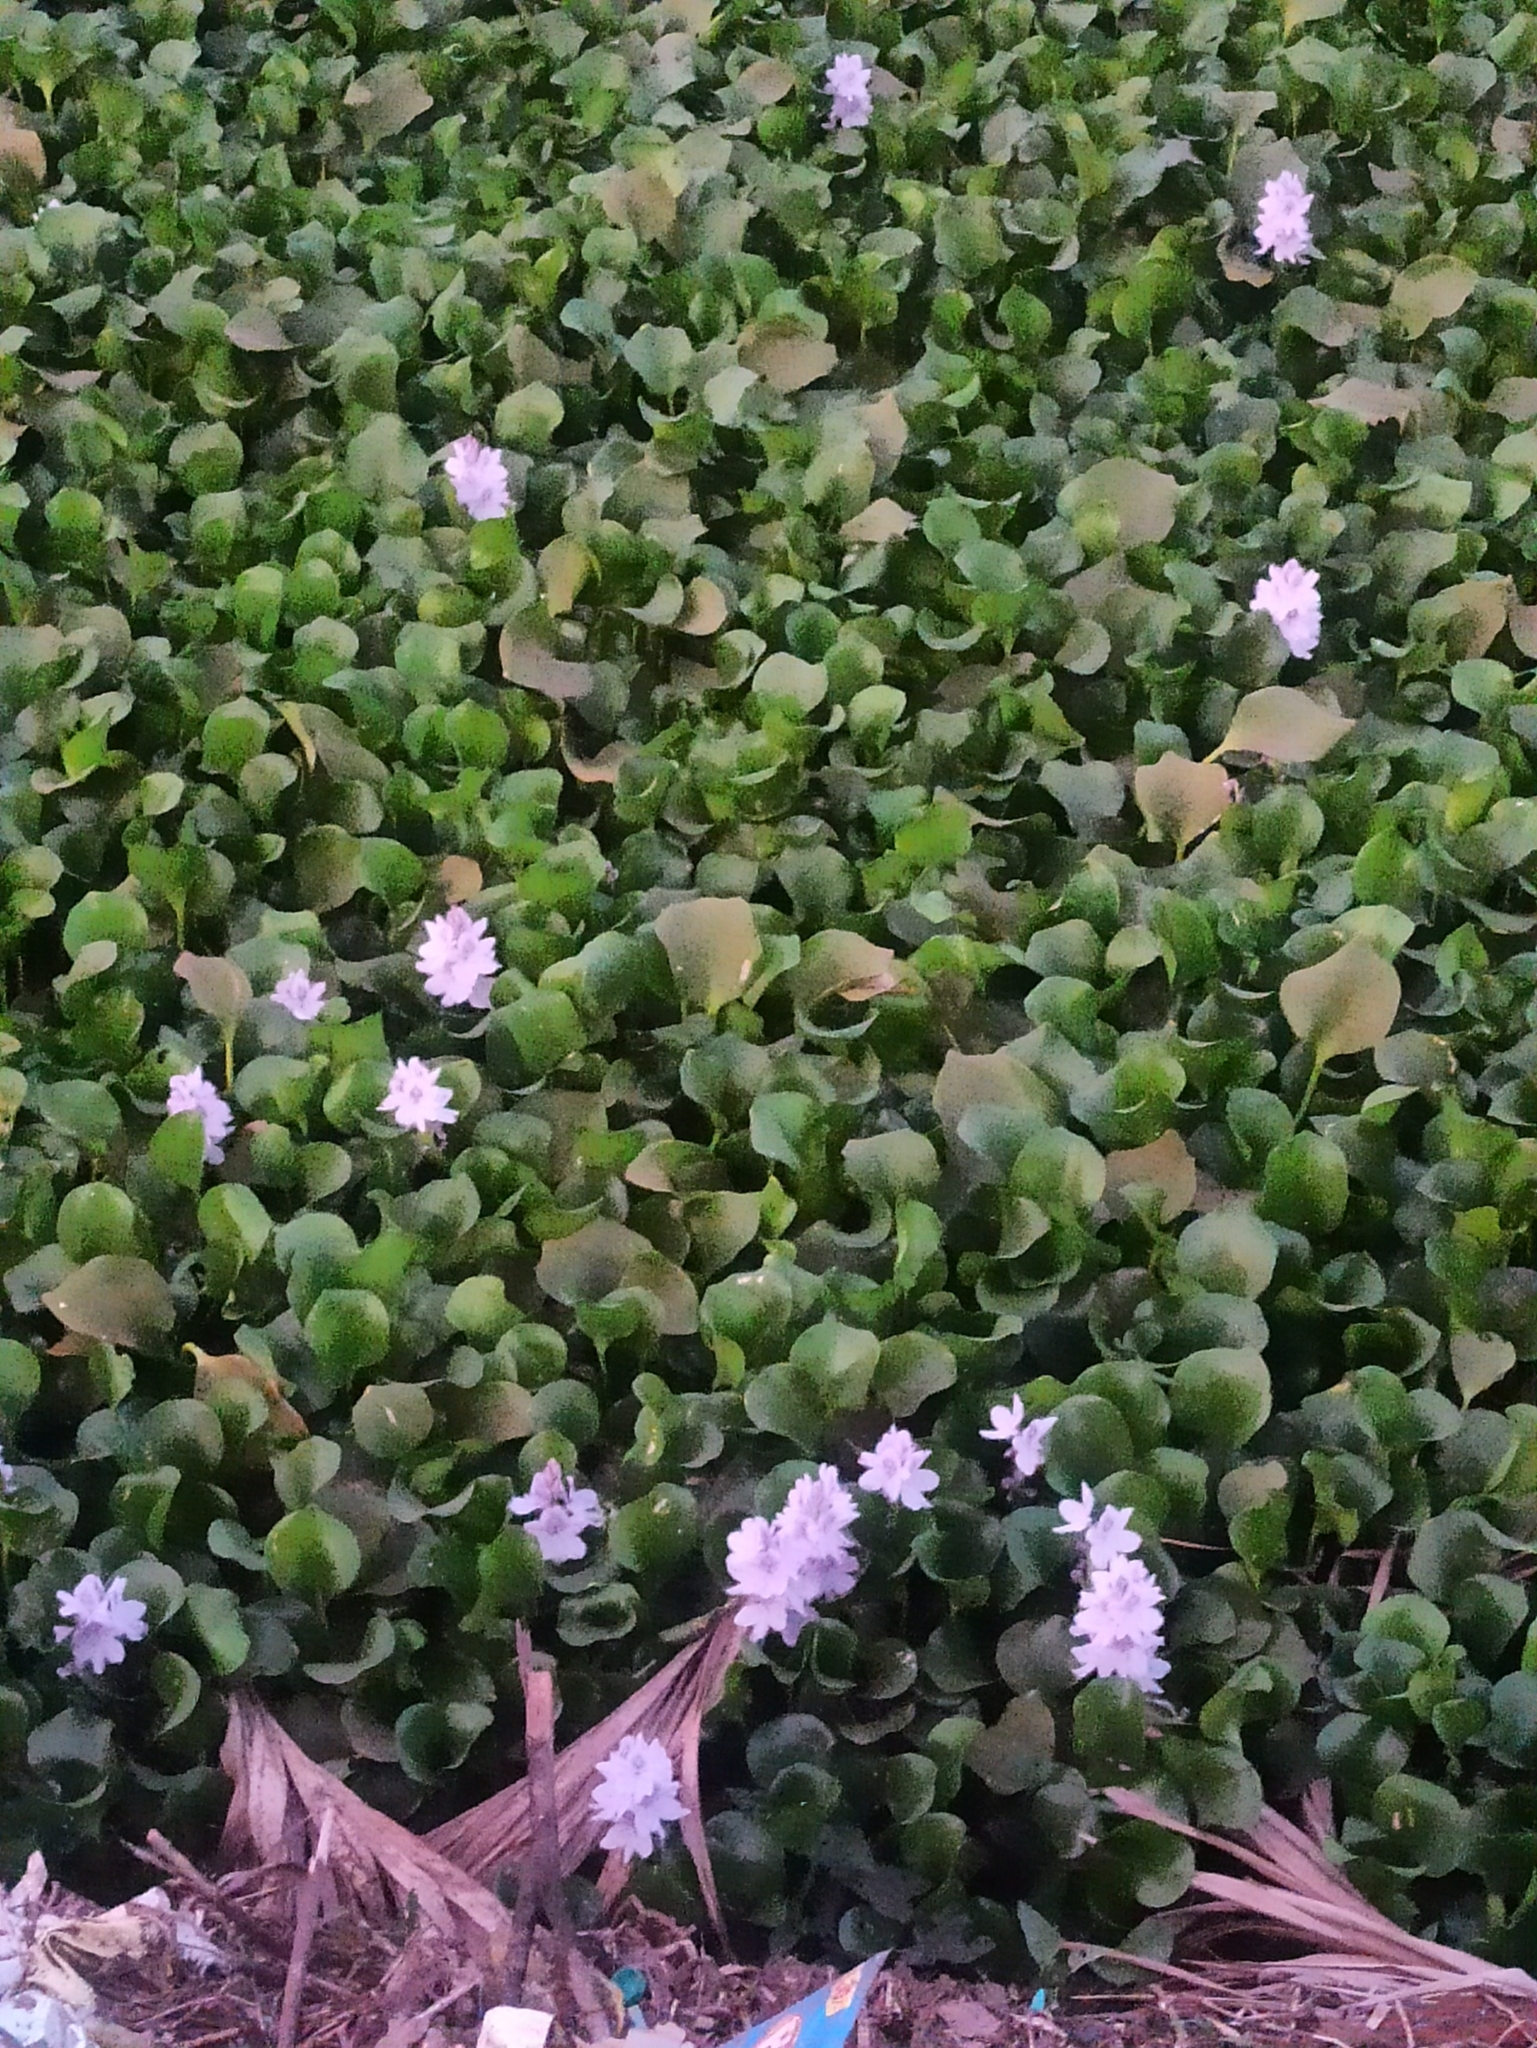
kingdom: Plantae
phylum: Tracheophyta
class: Liliopsida
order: Commelinales
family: Pontederiaceae
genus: Pontederia
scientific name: Pontederia crassipes
